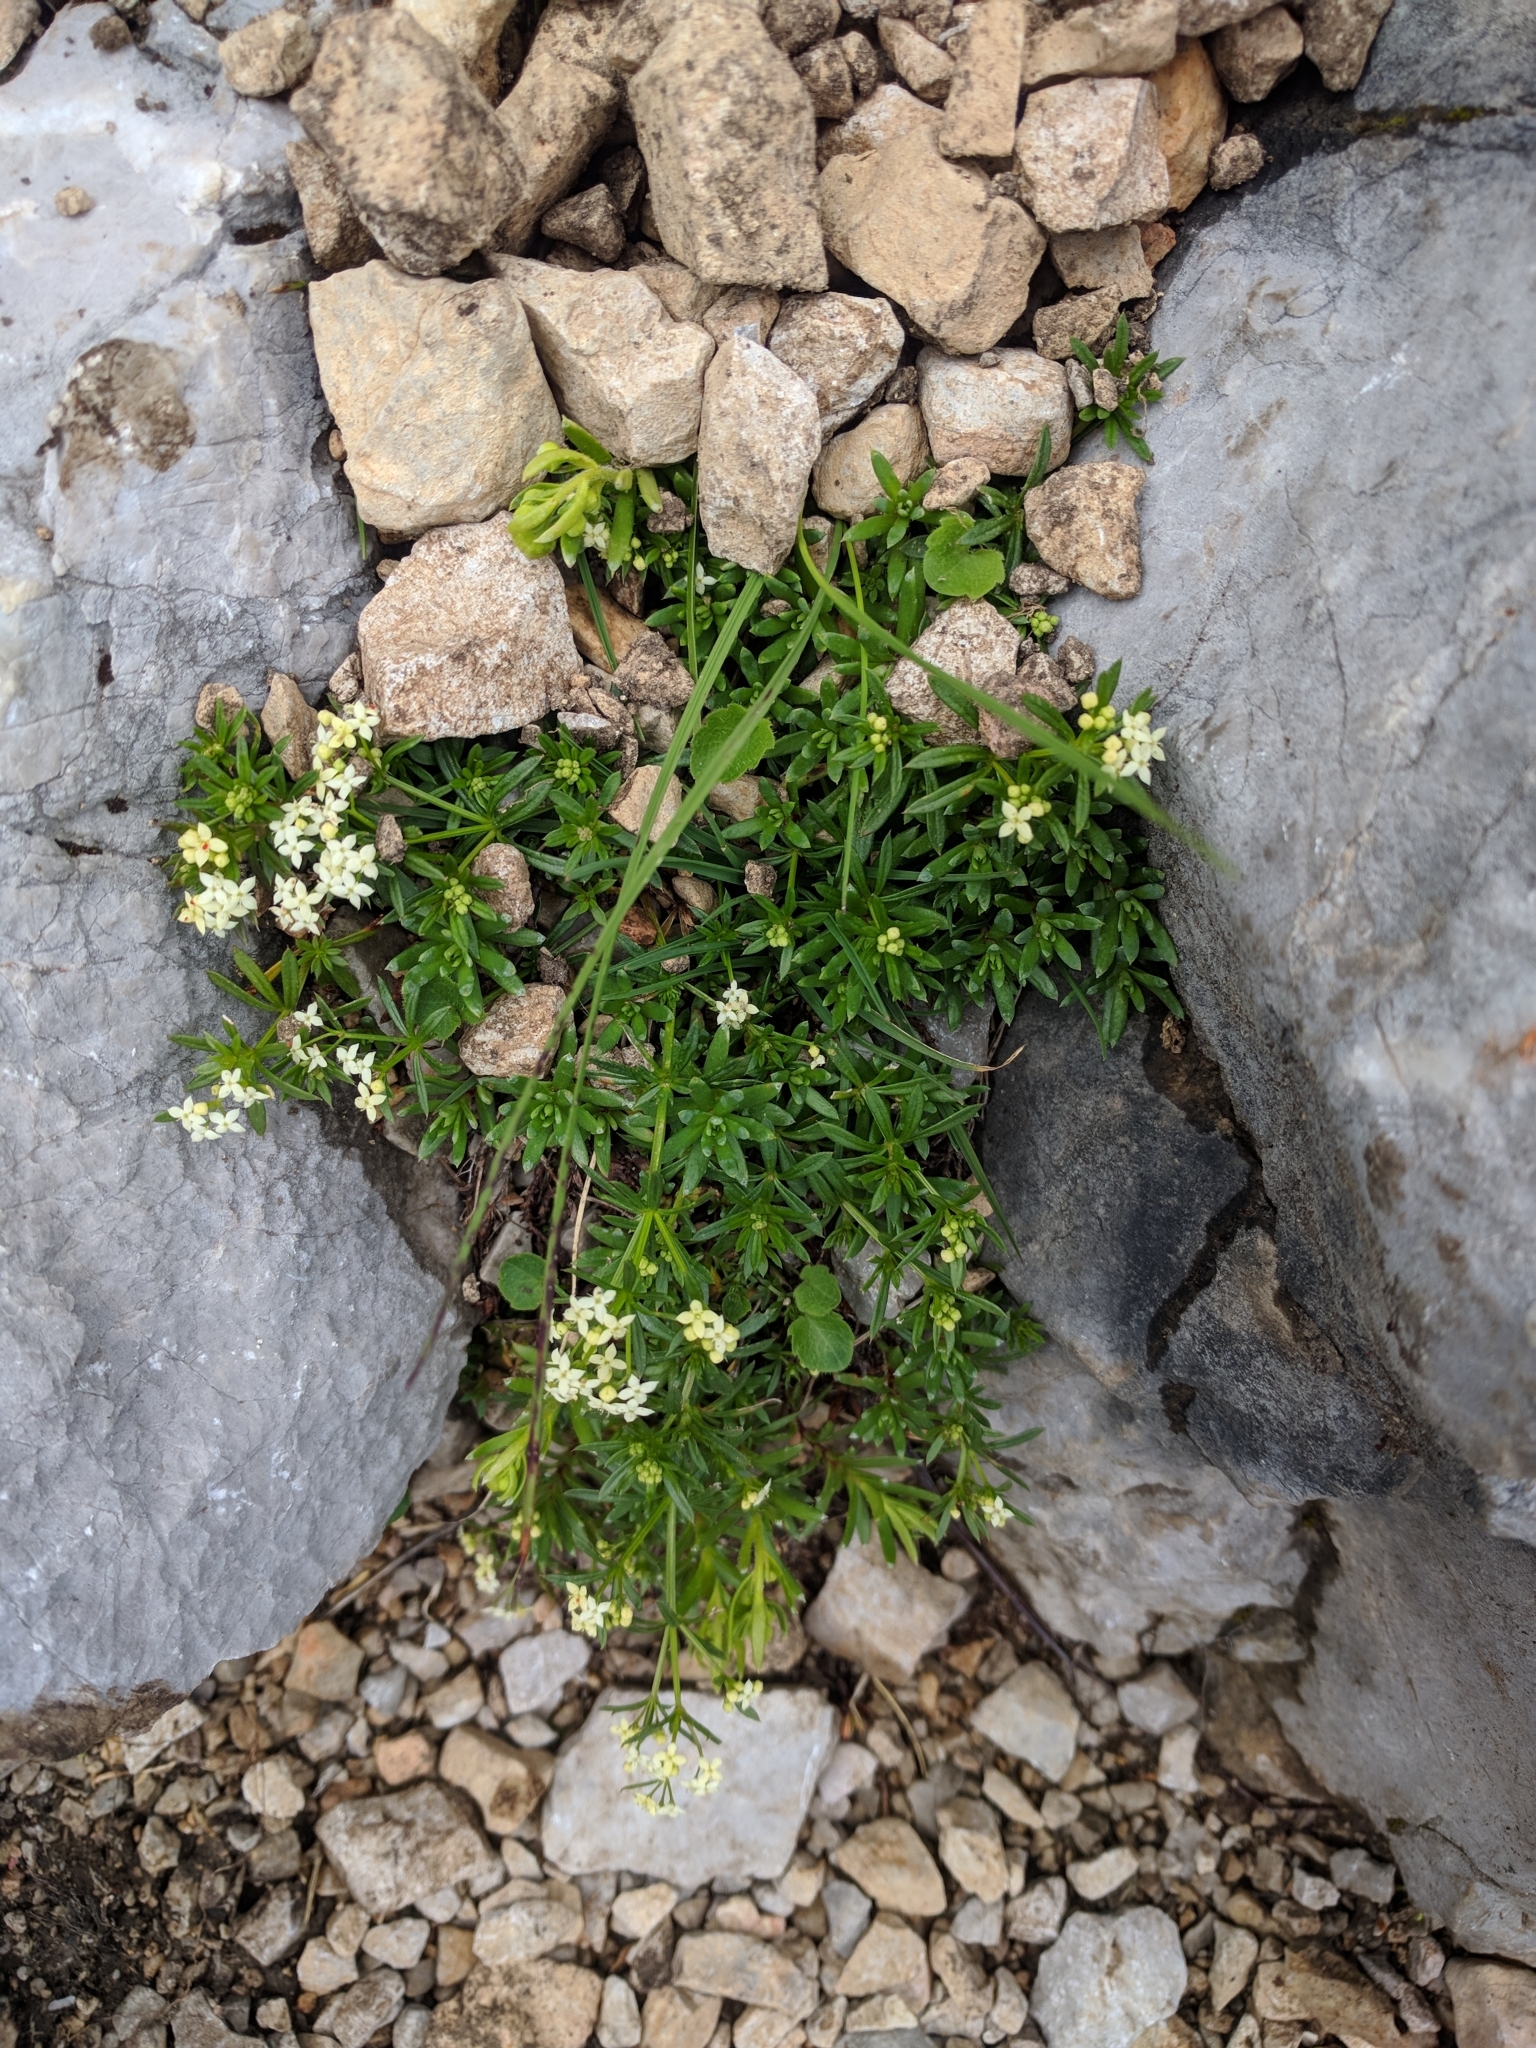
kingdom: Plantae
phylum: Tracheophyta
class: Magnoliopsida
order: Gentianales
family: Rubiaceae
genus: Galium
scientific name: Galium anisophyllon
